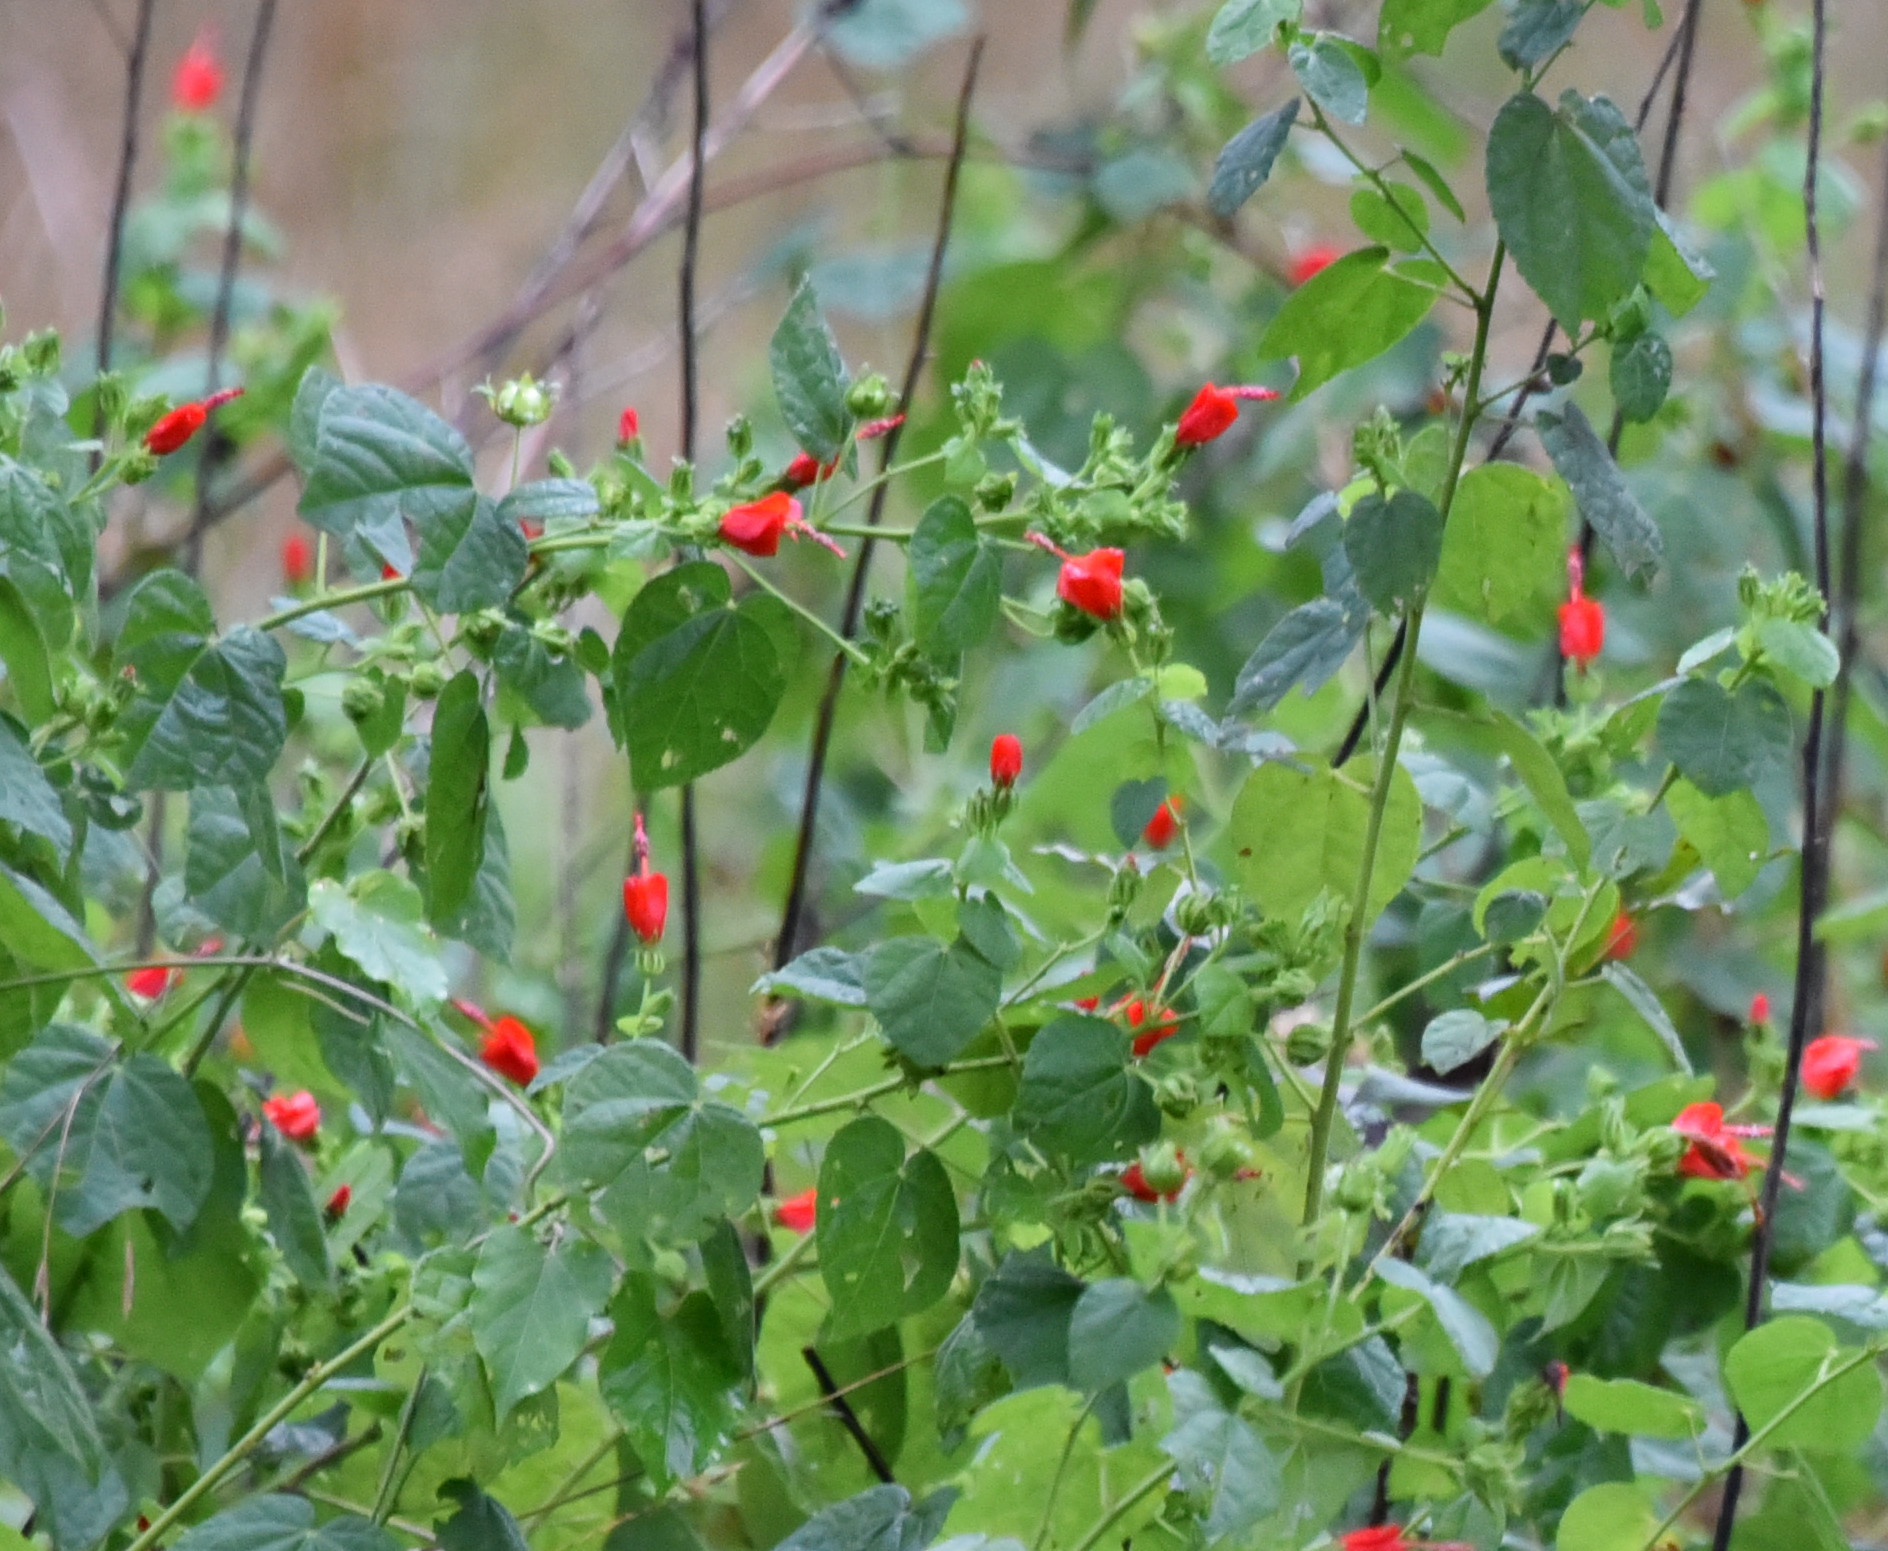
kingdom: Plantae
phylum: Tracheophyta
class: Magnoliopsida
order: Malvales
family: Malvaceae
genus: Malvaviscus
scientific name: Malvaviscus arboreus
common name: Wax mallow
